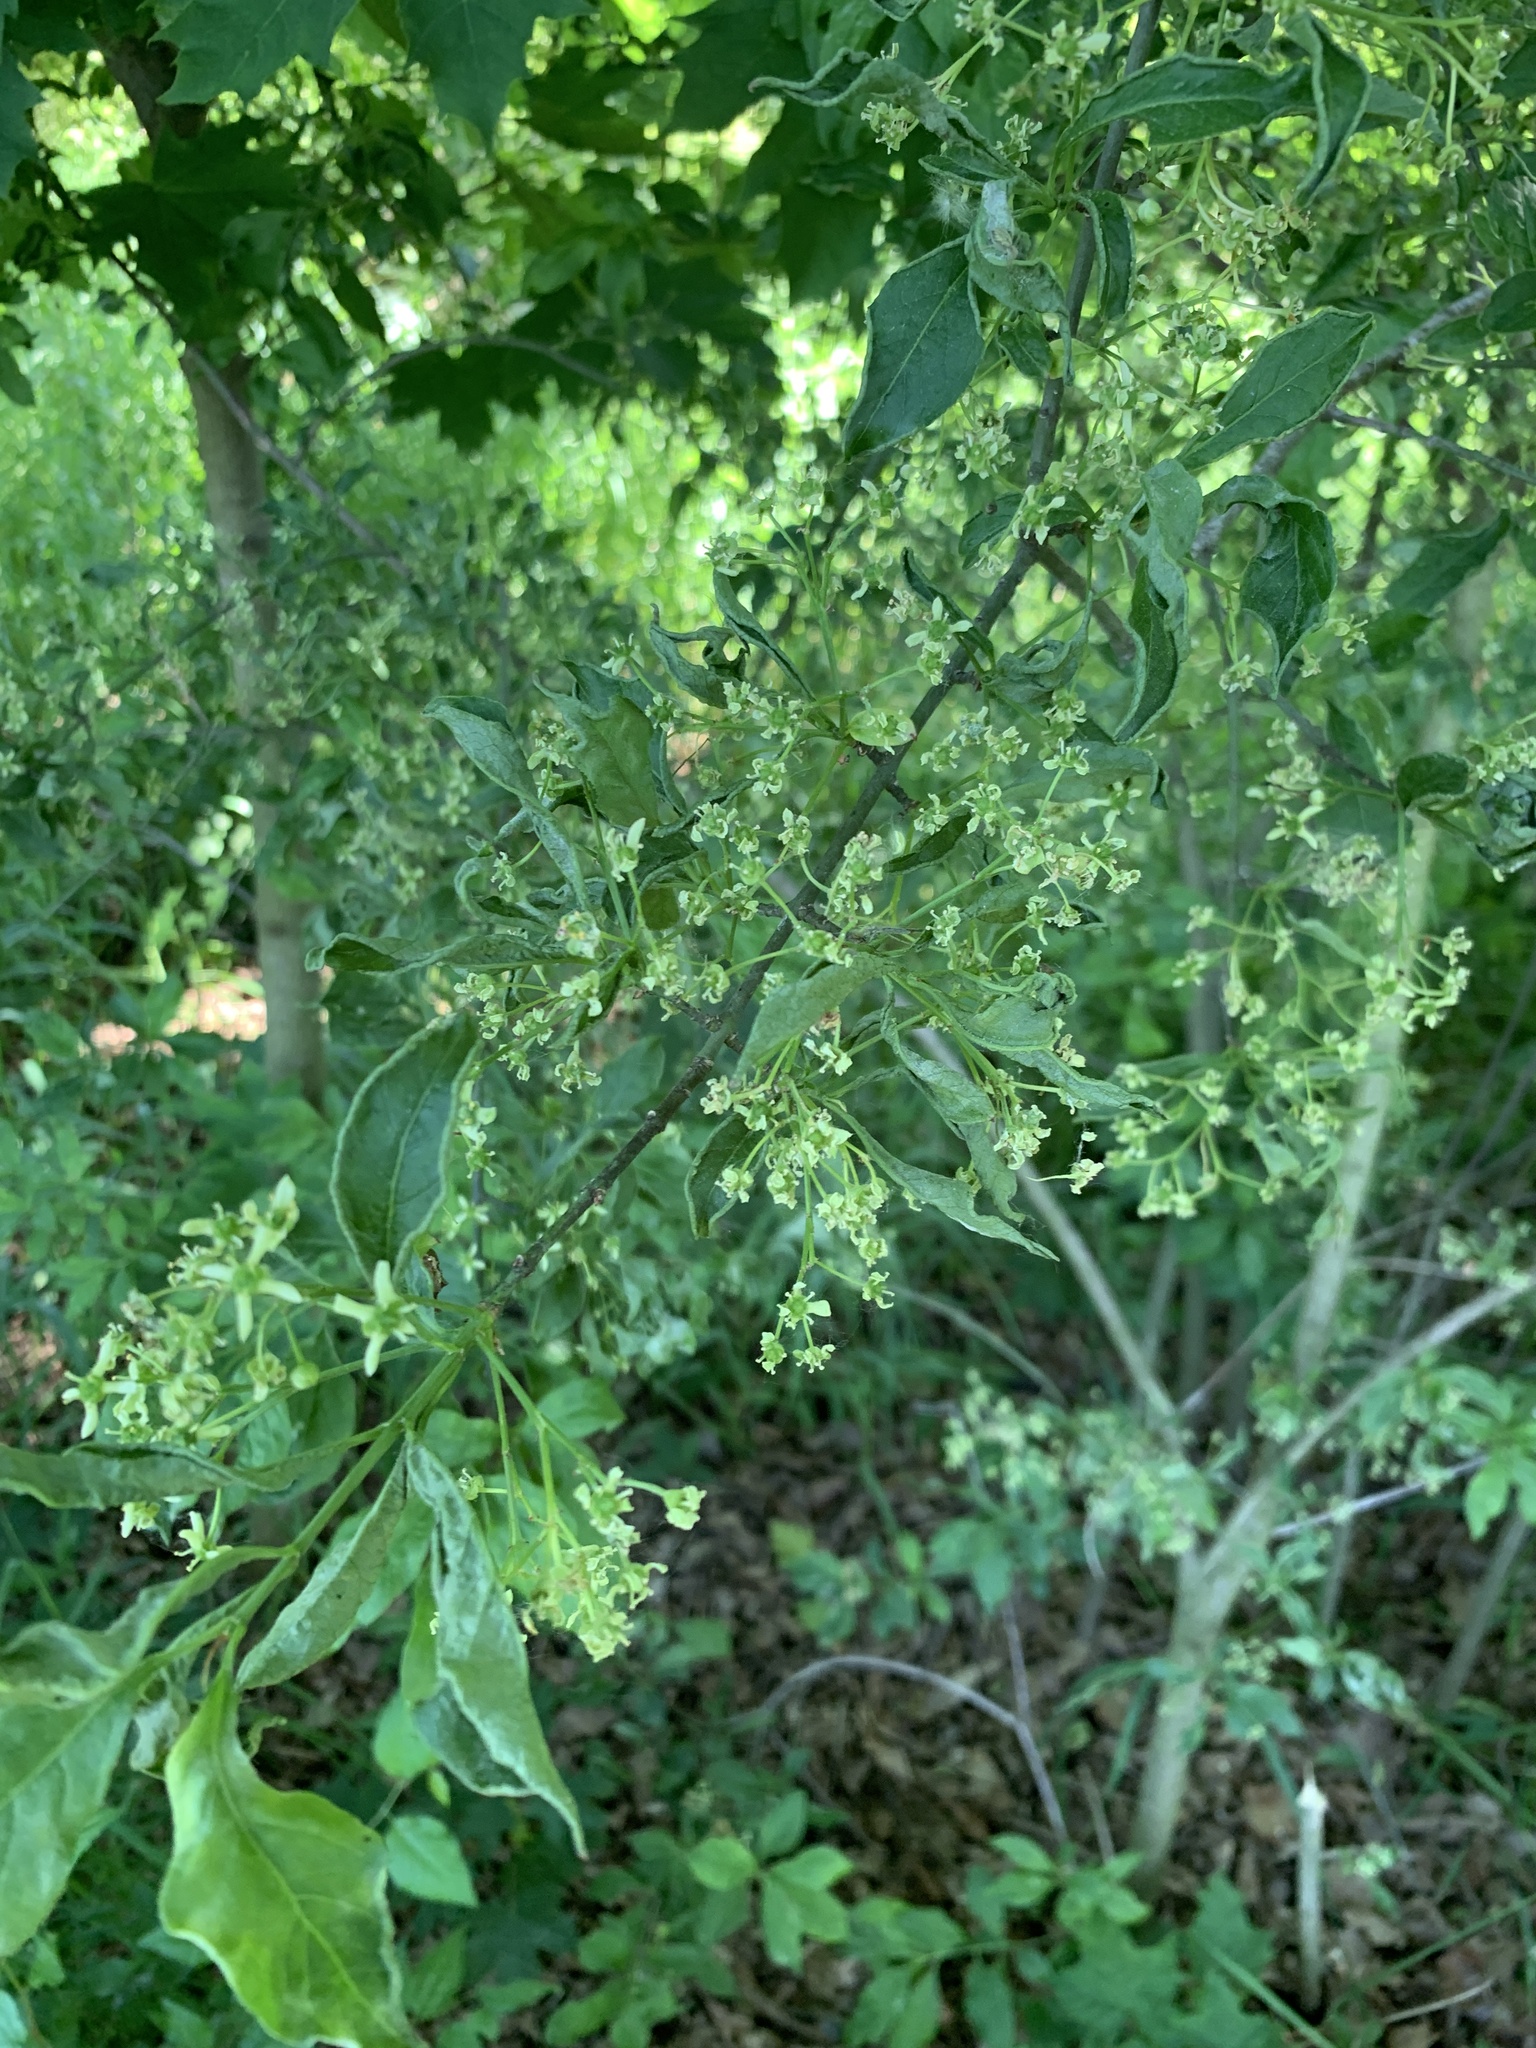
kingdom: Plantae
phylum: Tracheophyta
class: Magnoliopsida
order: Celastrales
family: Celastraceae
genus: Euonymus
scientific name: Euonymus europaeus
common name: Spindle
